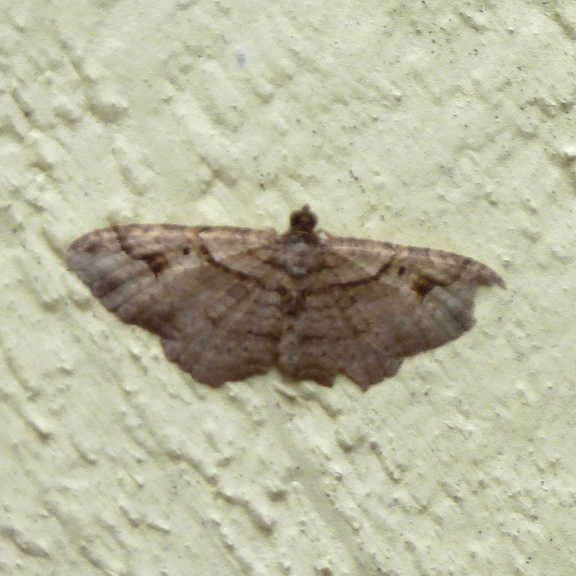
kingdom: Animalia
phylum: Arthropoda
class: Insecta
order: Lepidoptera
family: Geometridae
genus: Costaconvexa
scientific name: Costaconvexa centrostrigaria
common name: Bent-line carpet
